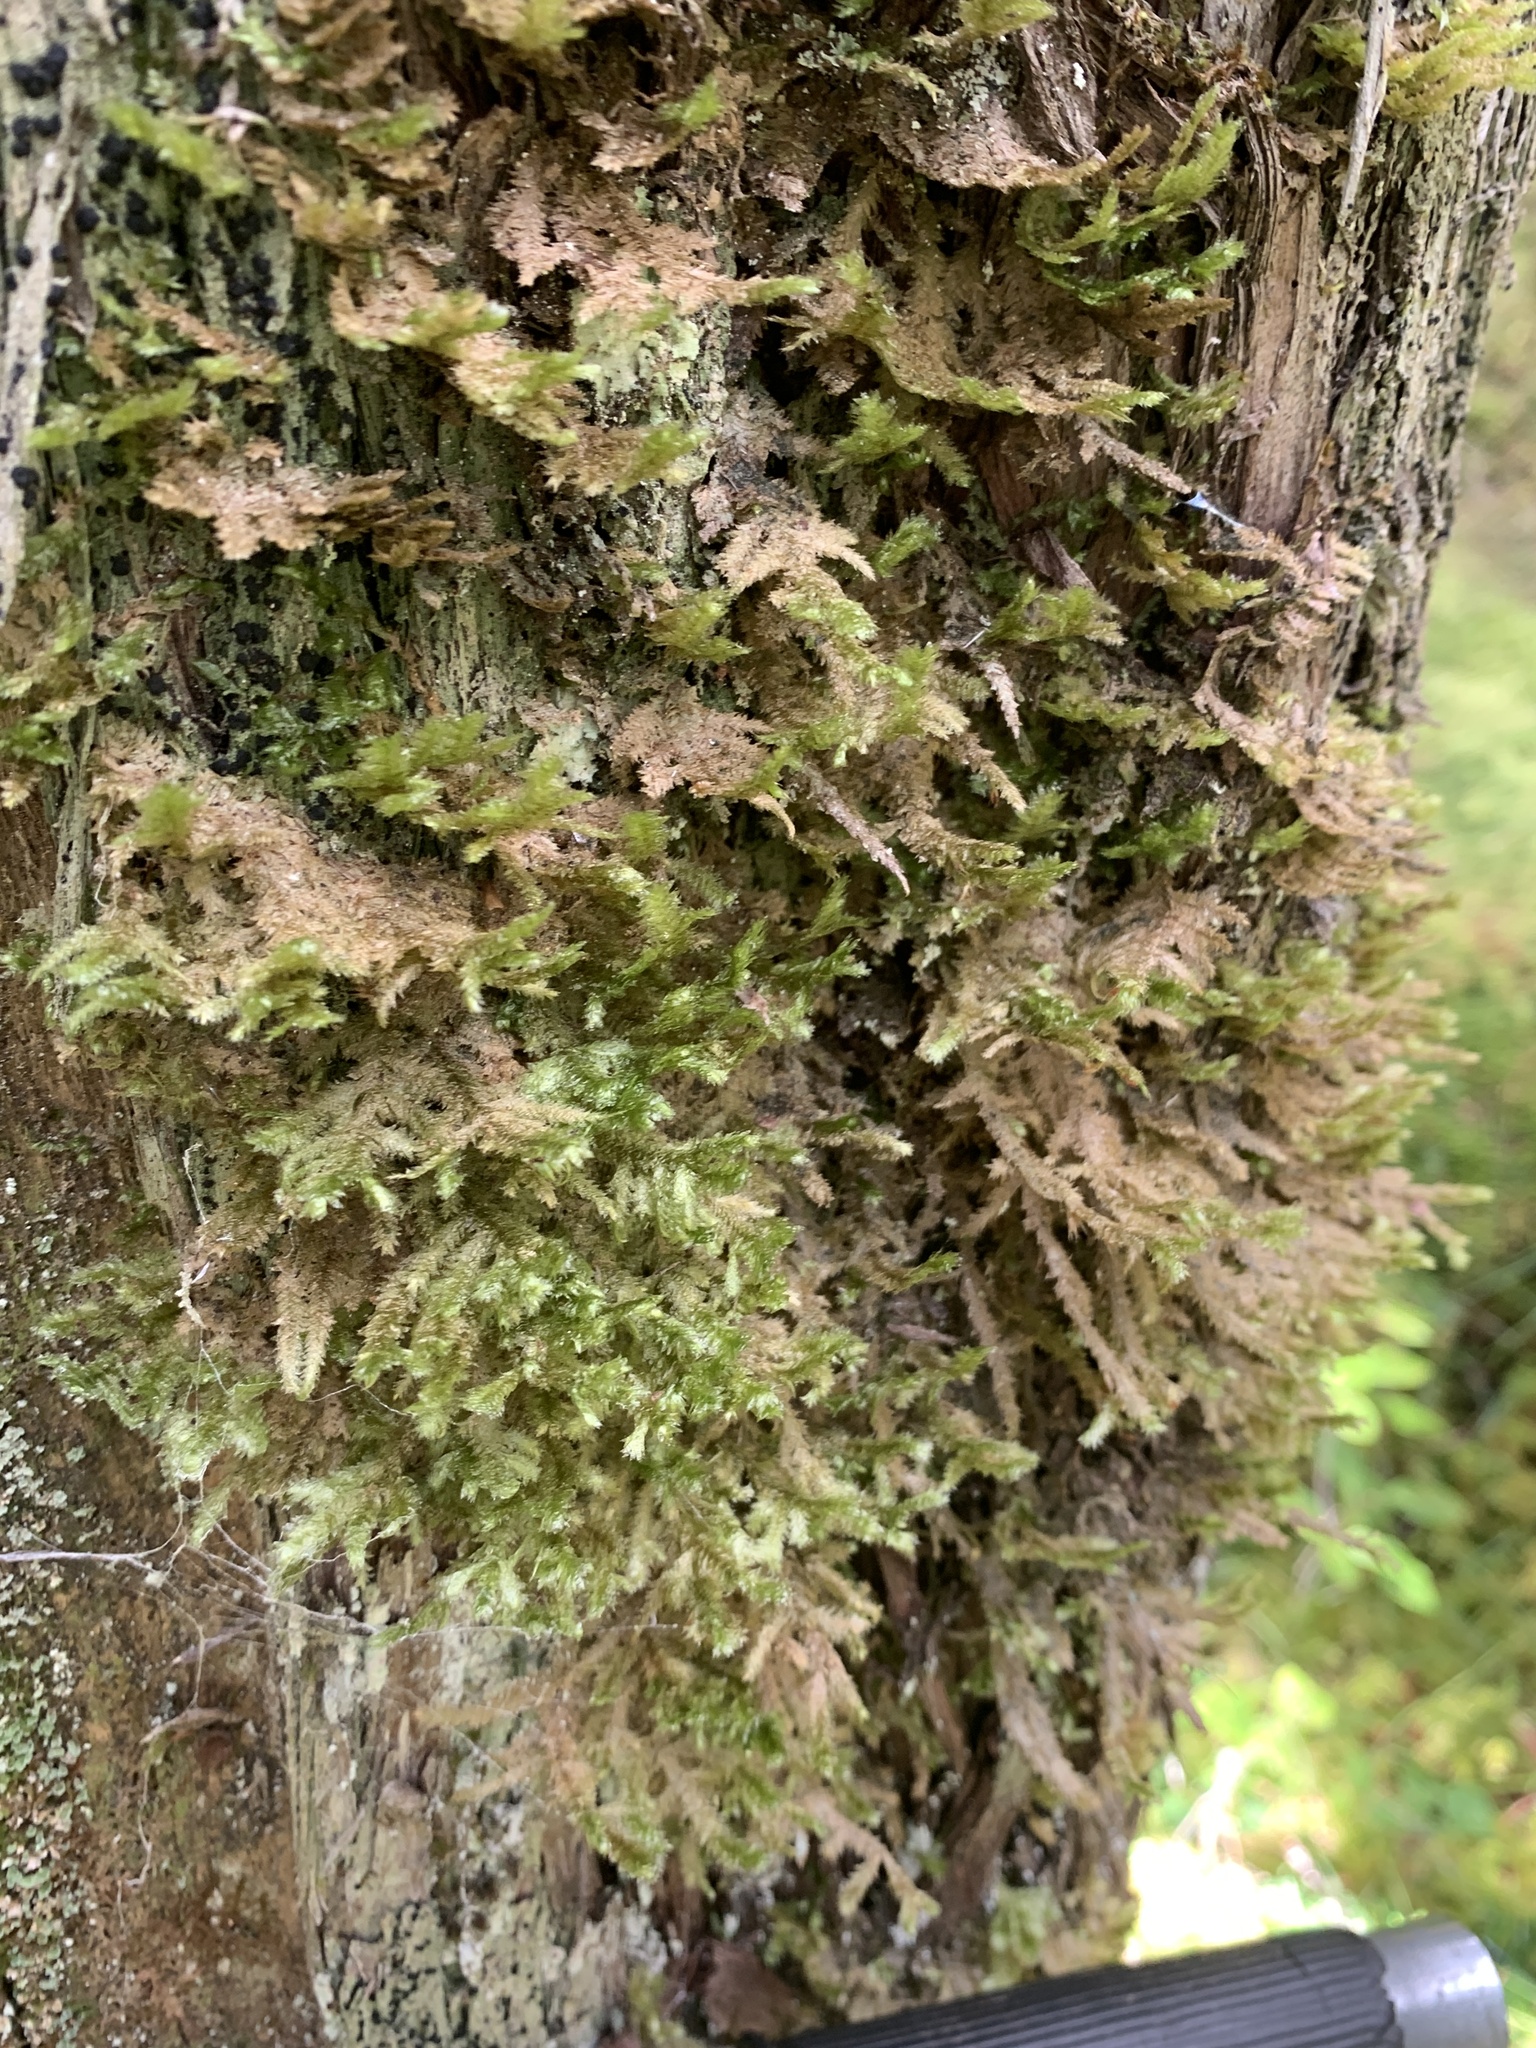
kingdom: Plantae
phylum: Bryophyta
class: Bryopsida
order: Hypnales
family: Neckeraceae
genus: Neckera
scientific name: Neckera pennata
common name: Feathery neckera
